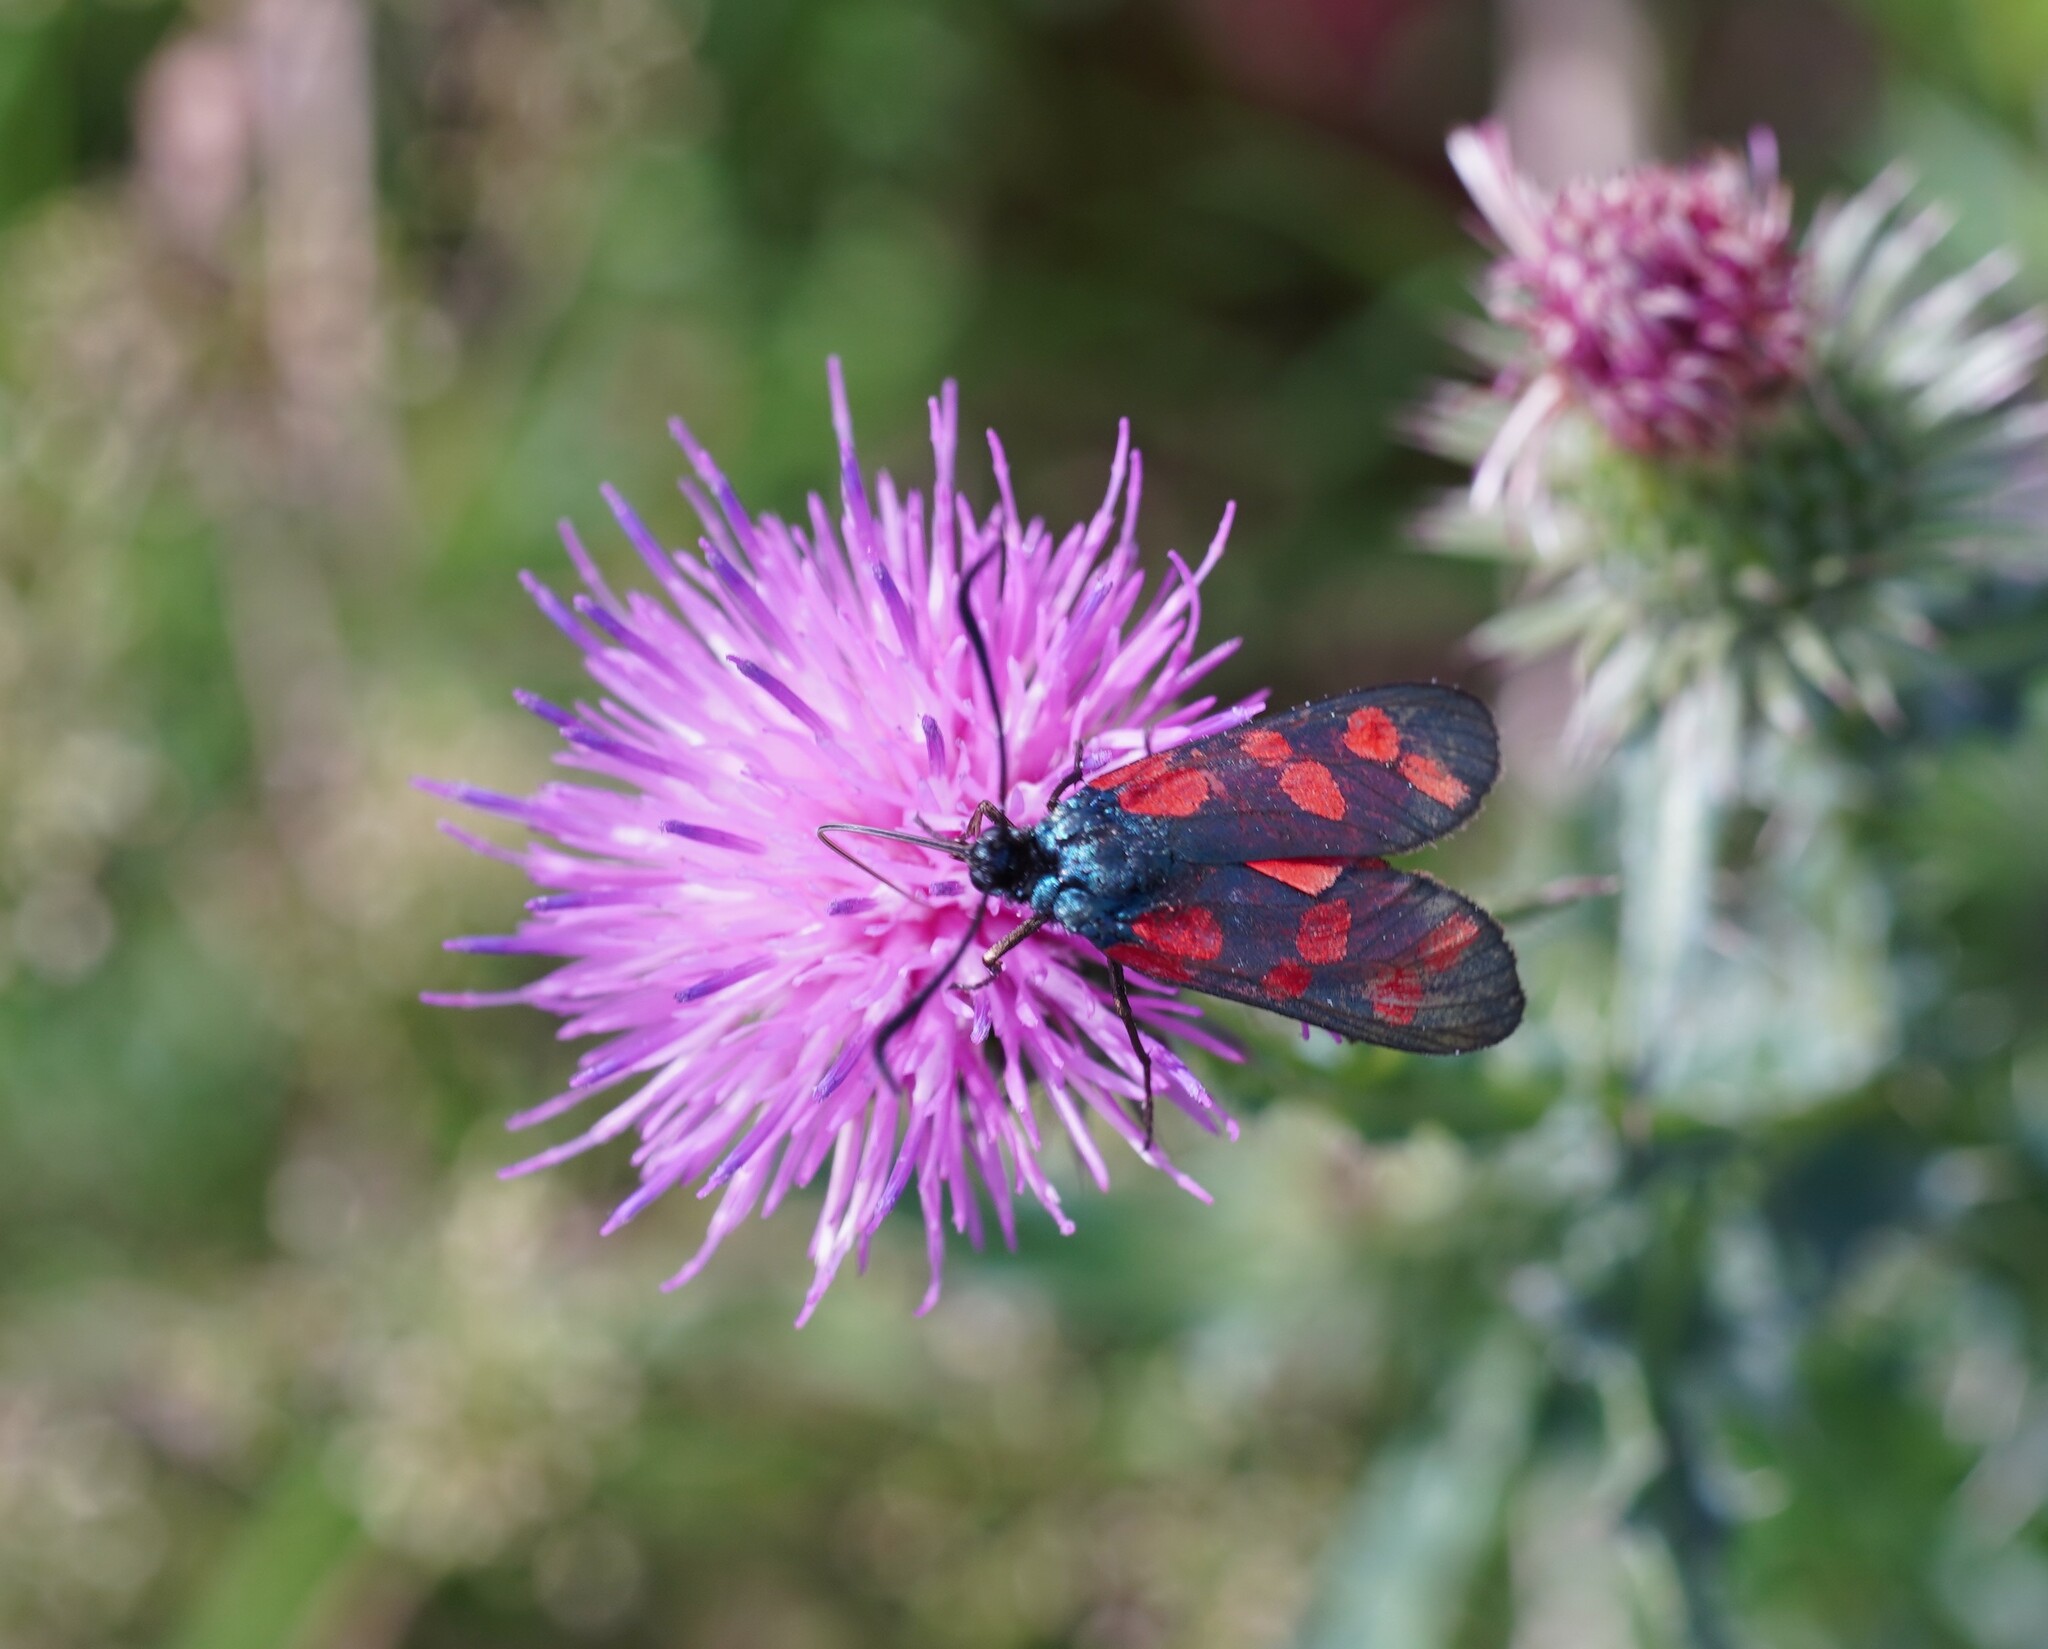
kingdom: Animalia
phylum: Arthropoda
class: Insecta
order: Lepidoptera
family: Zygaenidae
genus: Zygaena
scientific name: Zygaena filipendulae
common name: Six-spot burnet
